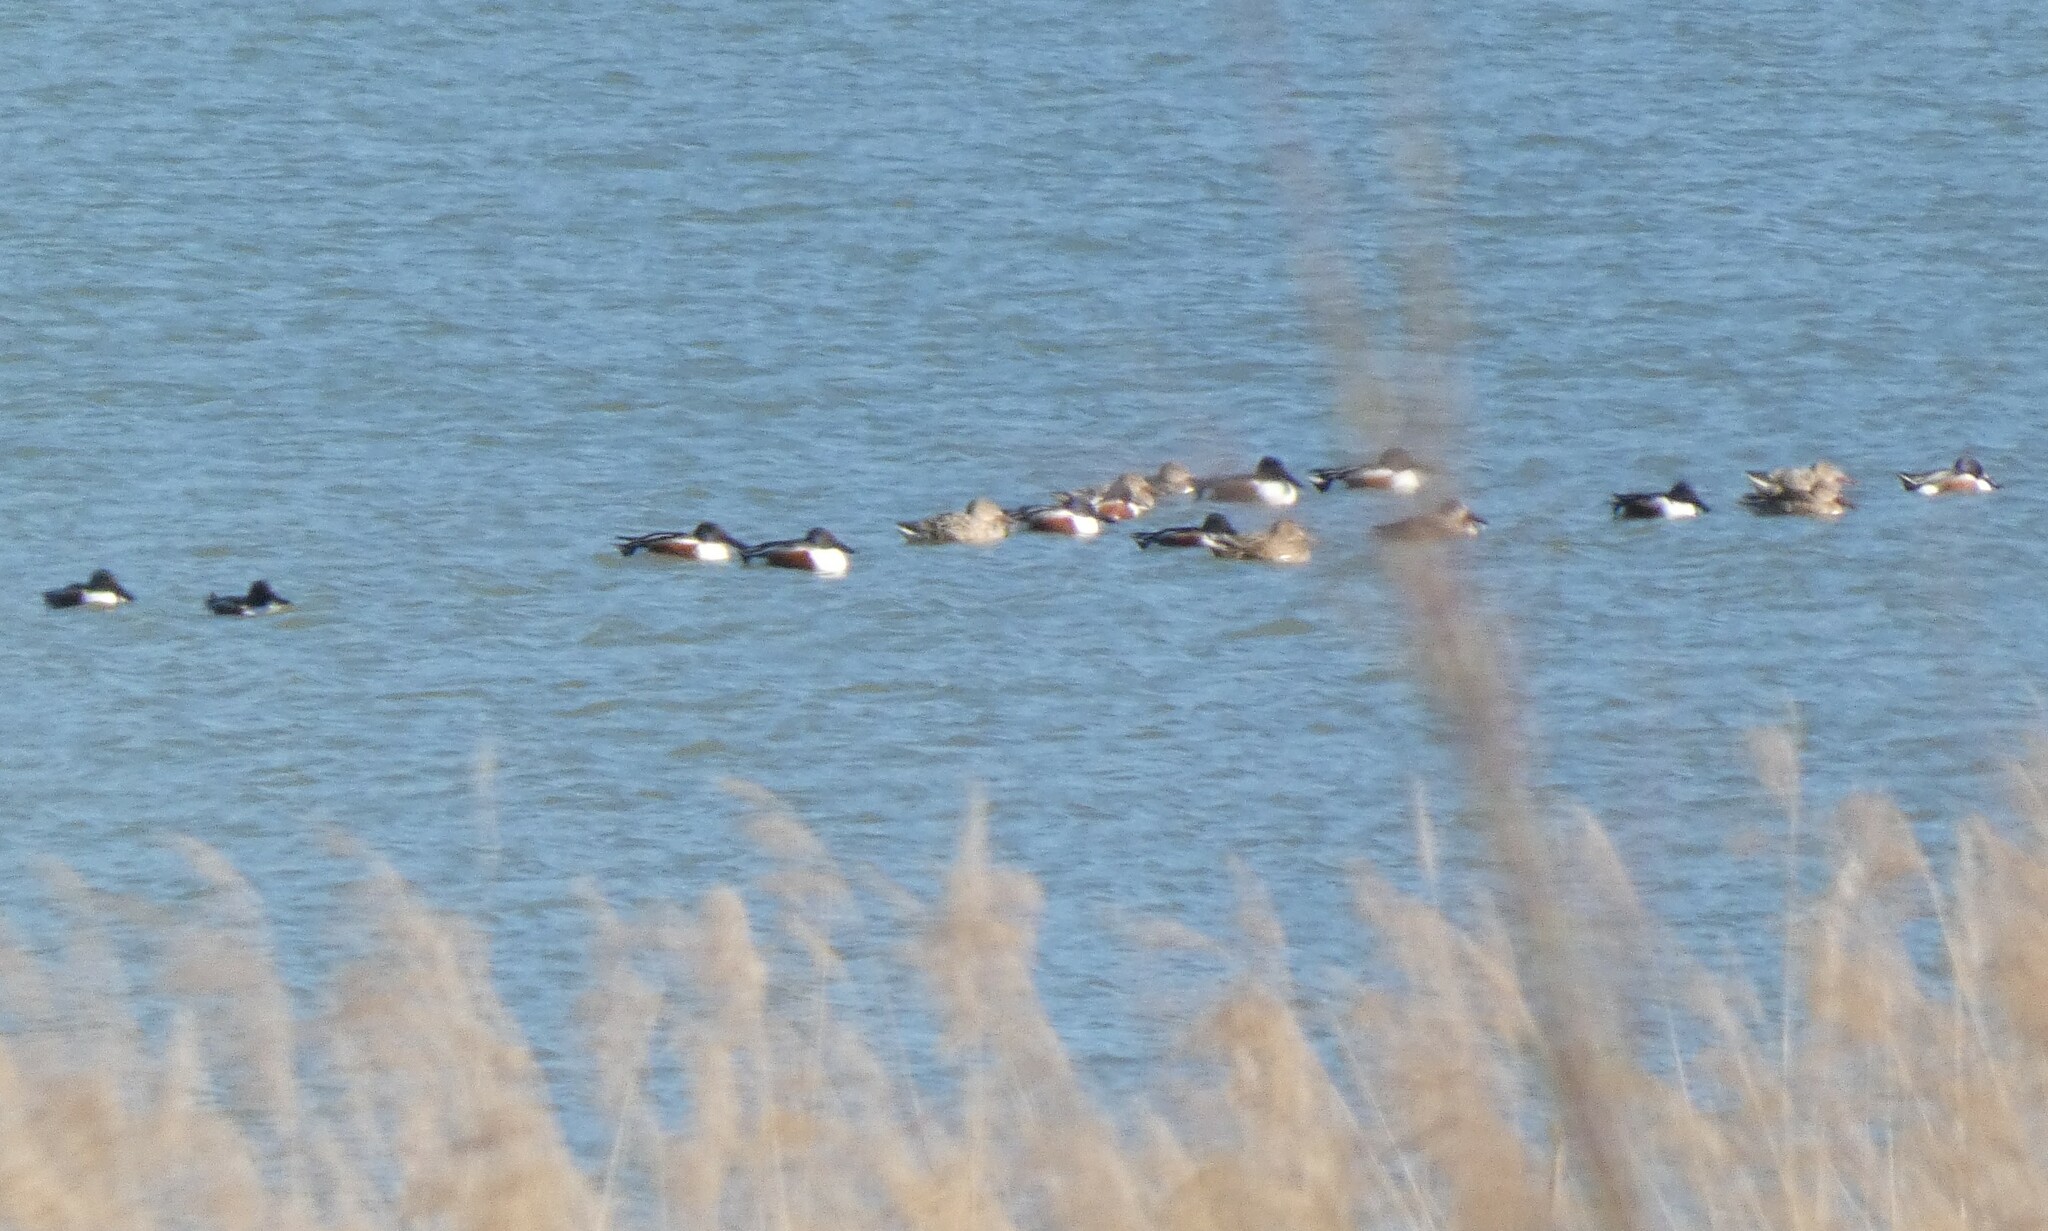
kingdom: Animalia
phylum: Chordata
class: Aves
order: Anseriformes
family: Anatidae
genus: Spatula
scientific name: Spatula clypeata
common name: Northern shoveler
